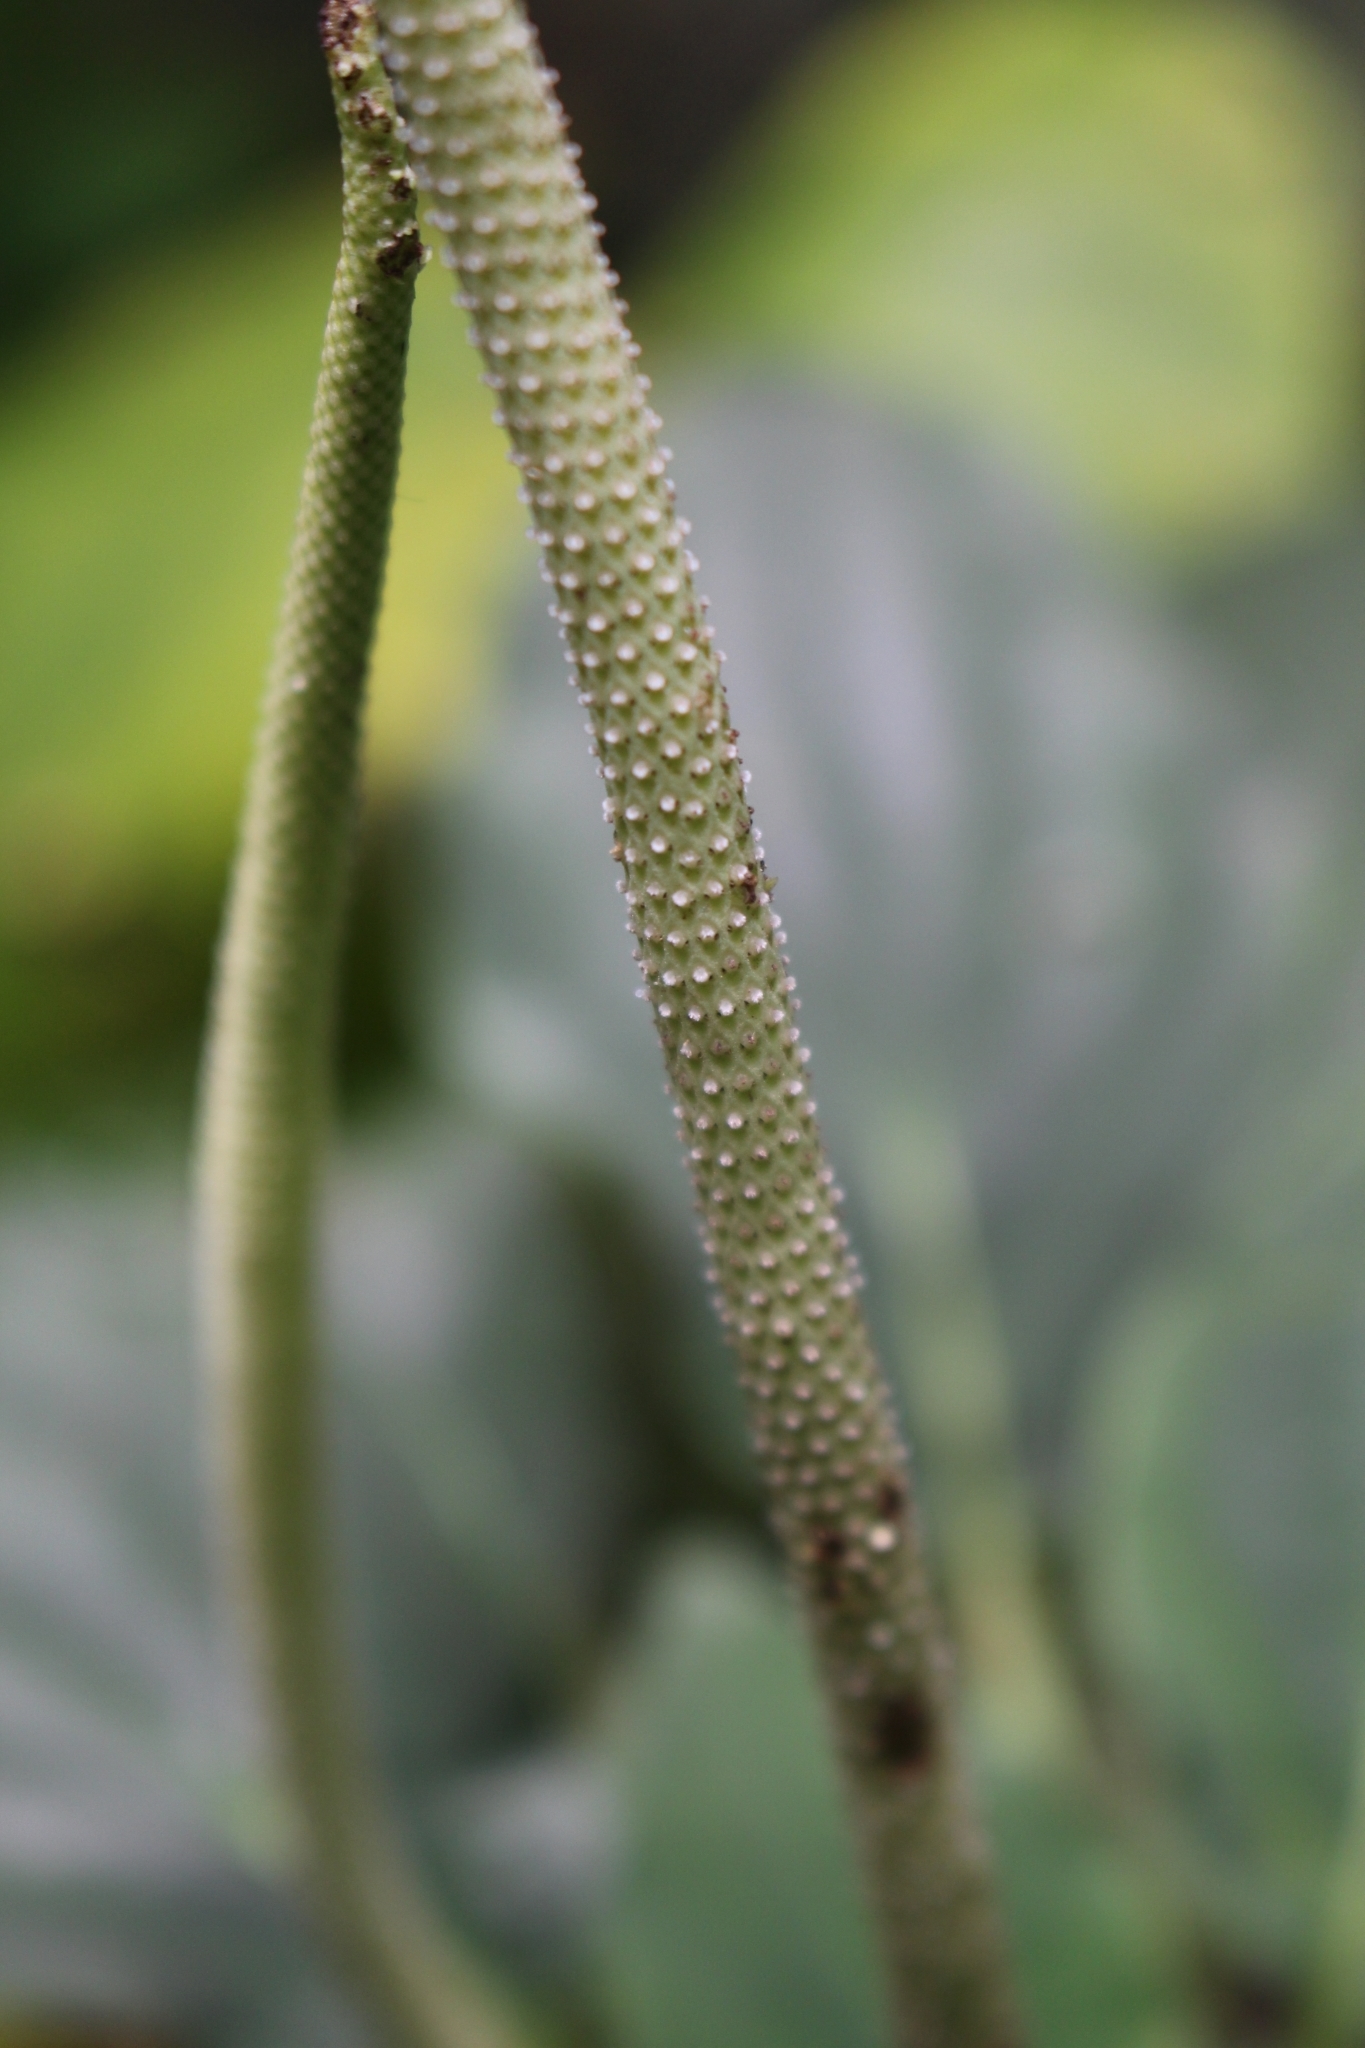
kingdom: Plantae
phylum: Tracheophyta
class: Magnoliopsida
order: Piperales
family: Piperaceae
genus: Peperomia
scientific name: Peperomia lignescens
